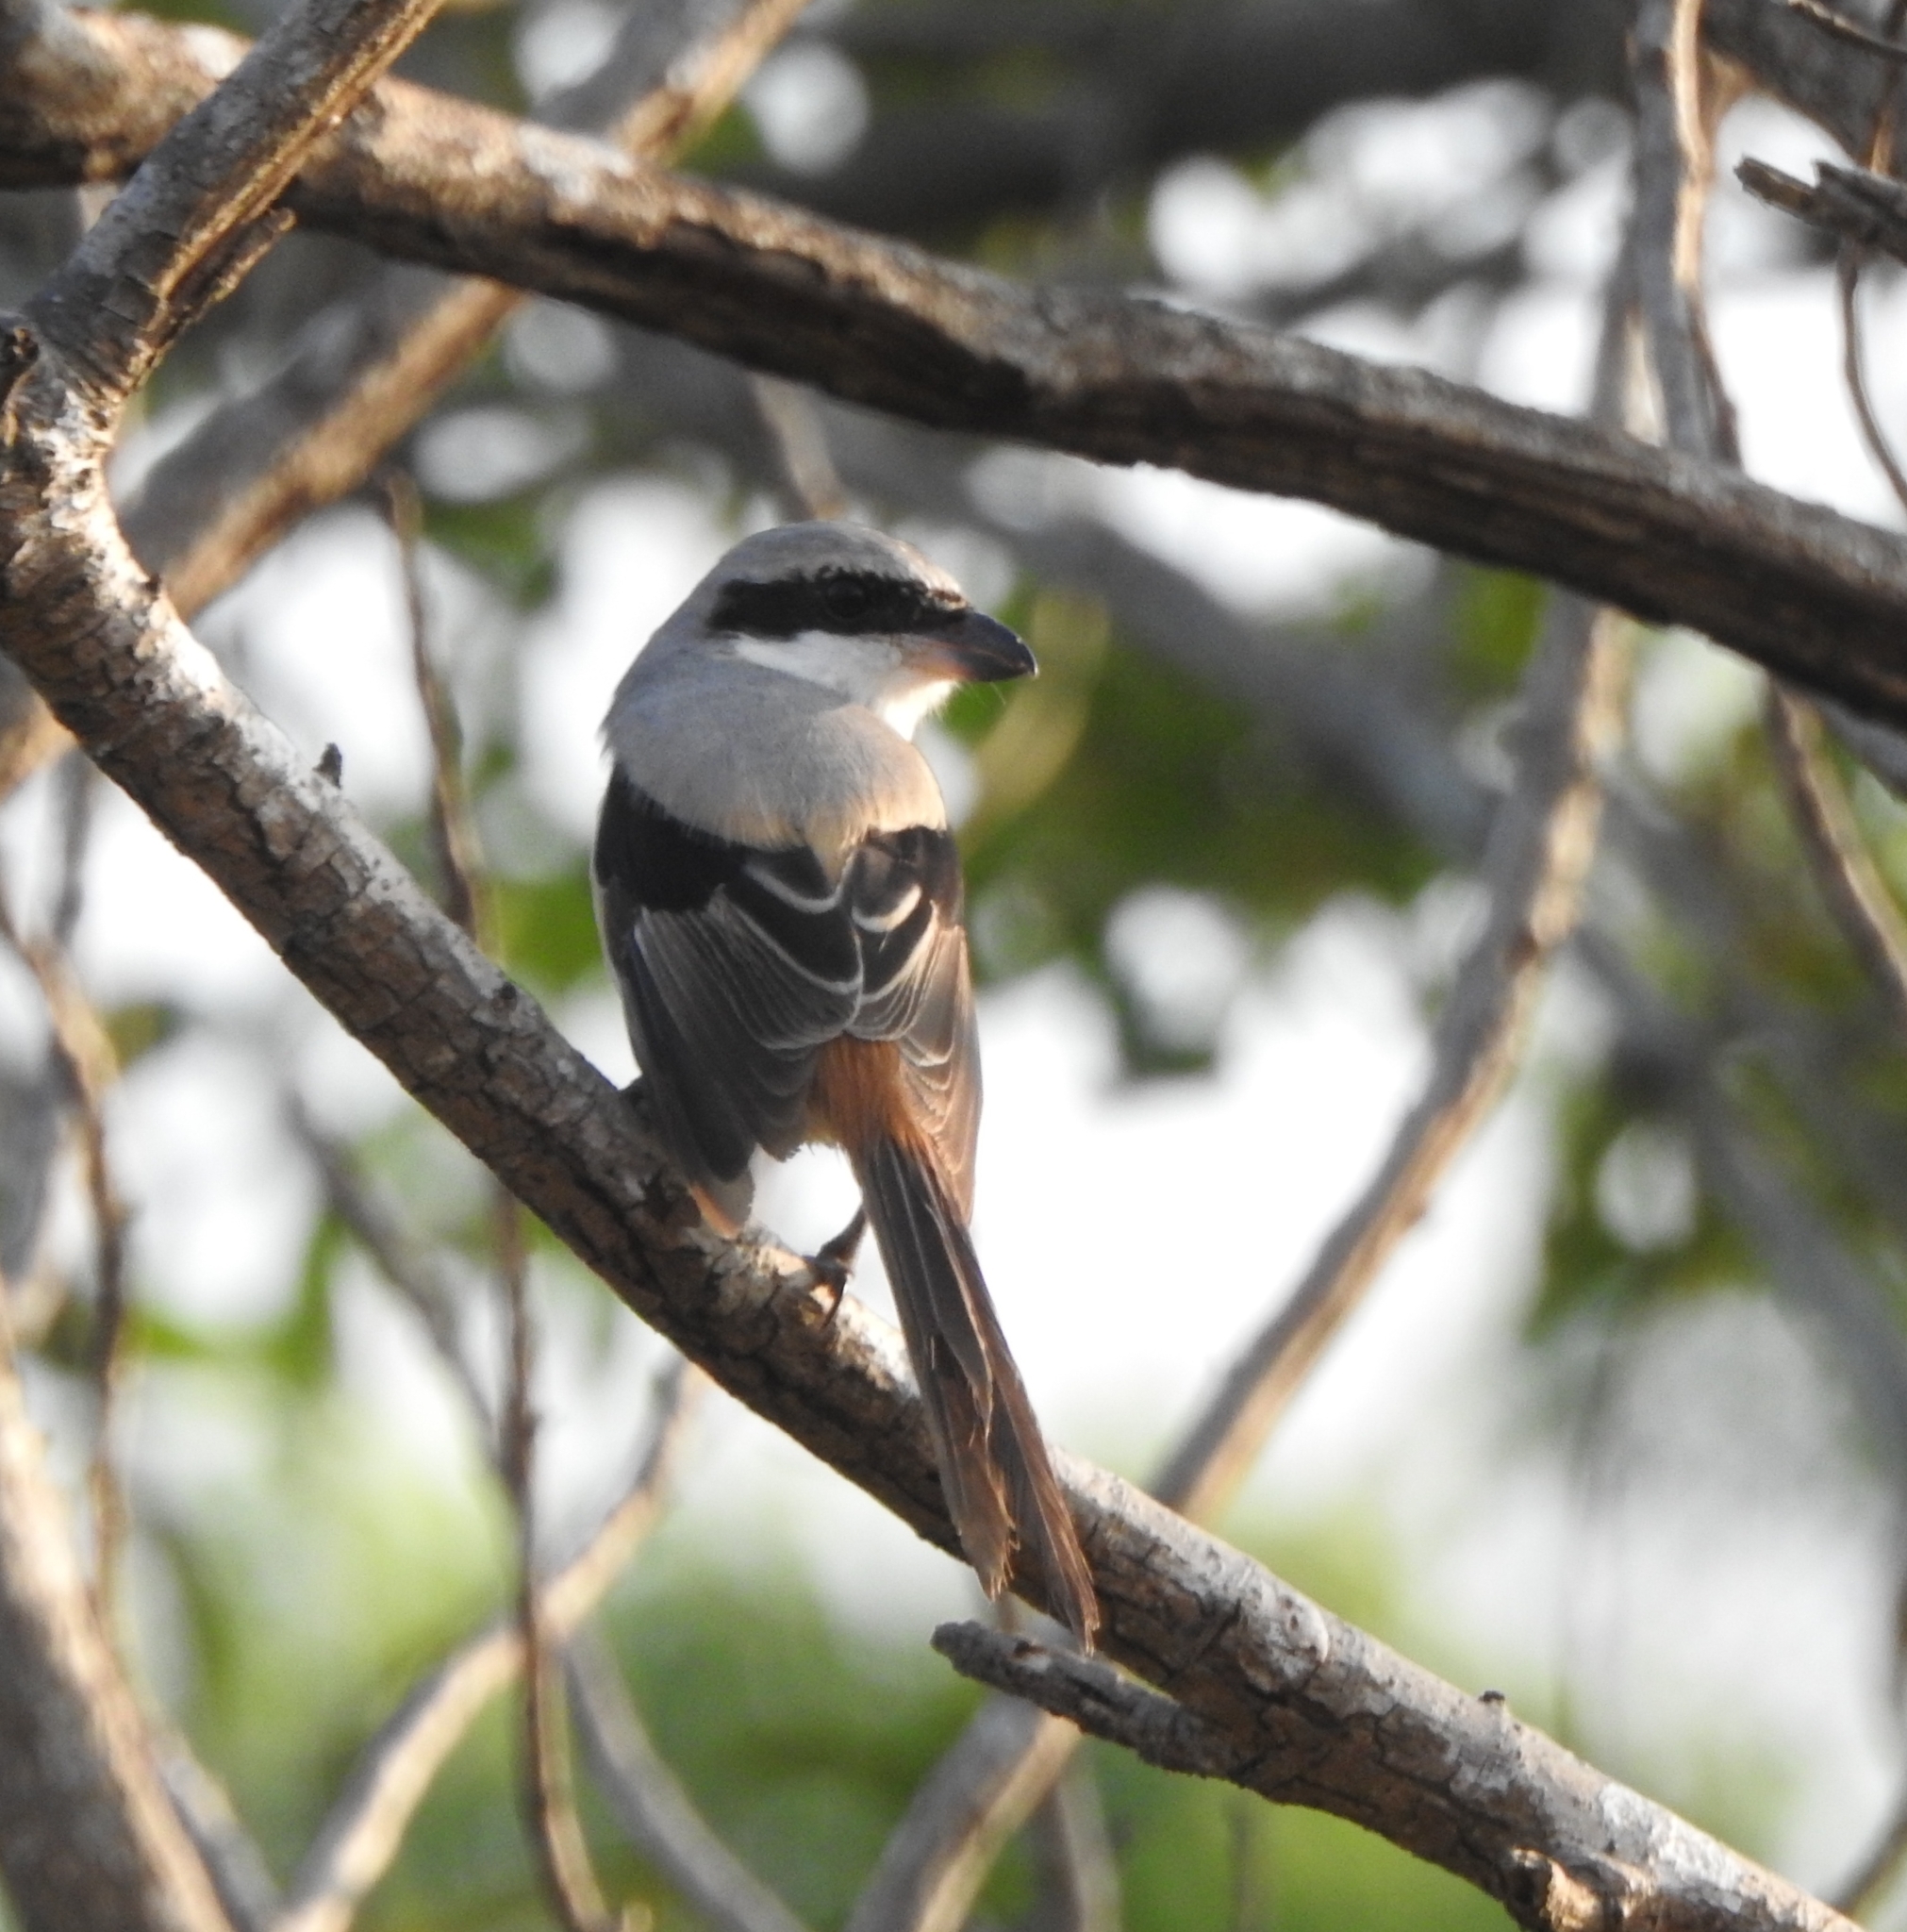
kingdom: Animalia
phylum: Chordata
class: Aves
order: Passeriformes
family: Laniidae
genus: Lanius
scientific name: Lanius schach
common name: Long-tailed shrike
